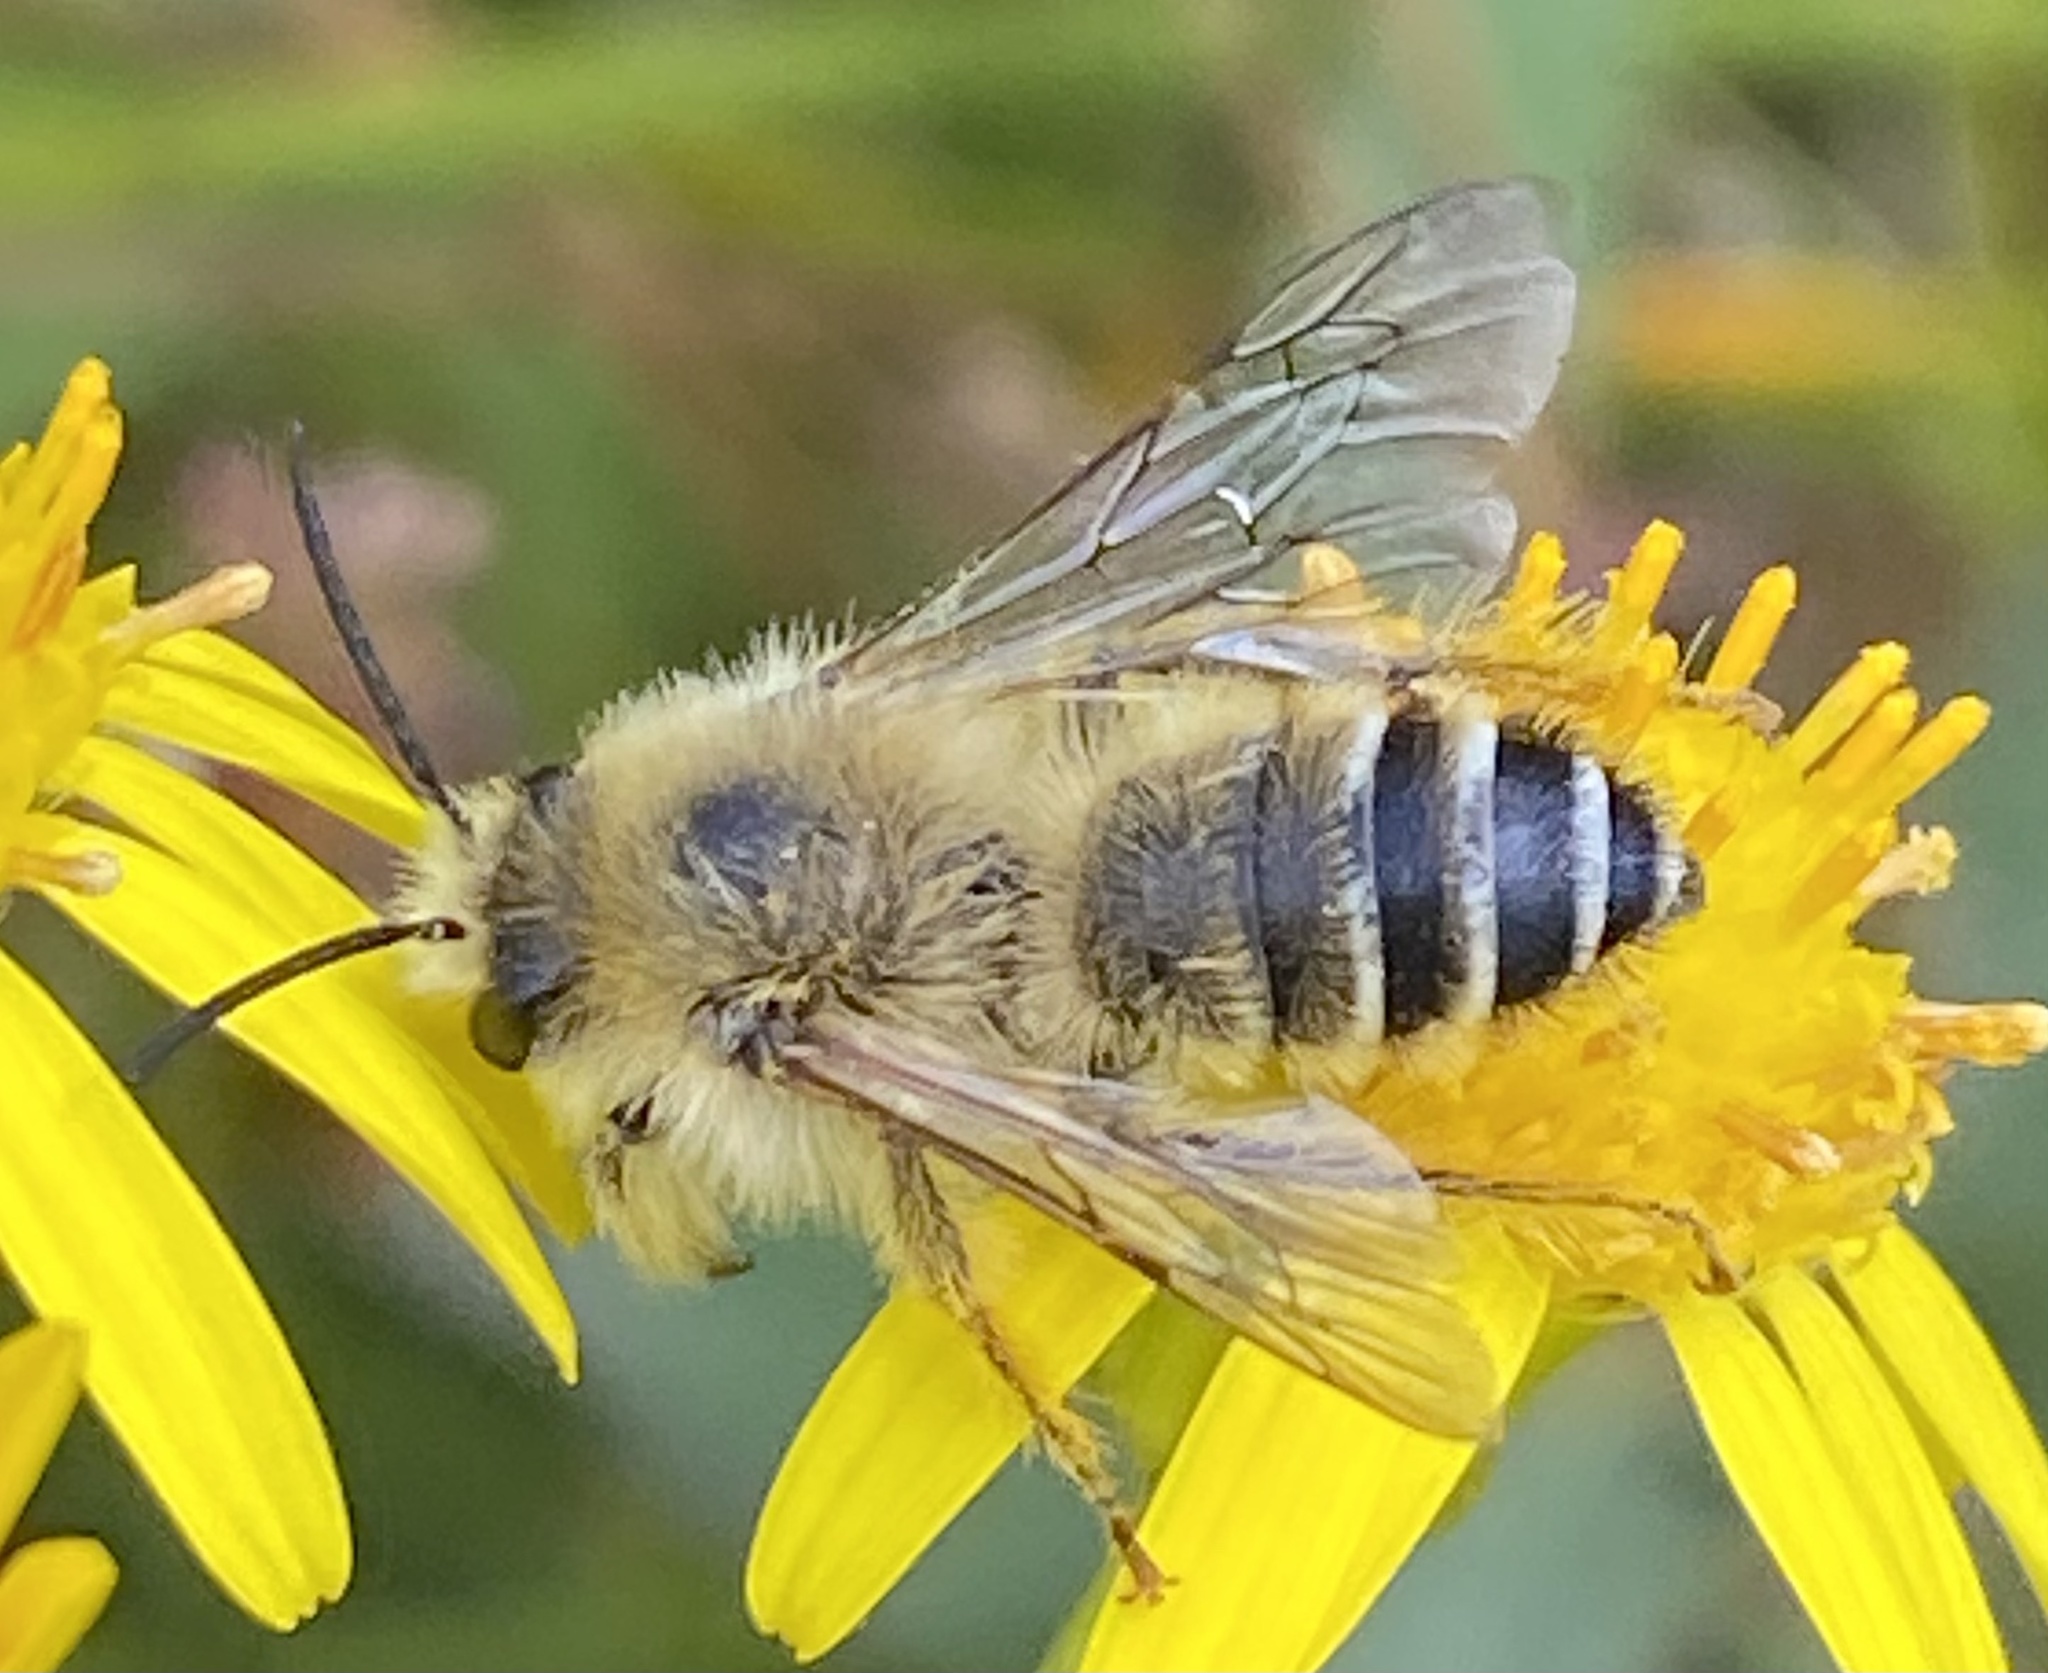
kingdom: Animalia
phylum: Arthropoda
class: Insecta
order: Hymenoptera
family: Melittidae
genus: Dasypoda
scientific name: Dasypoda hirtipes
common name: Pantaloon bee
